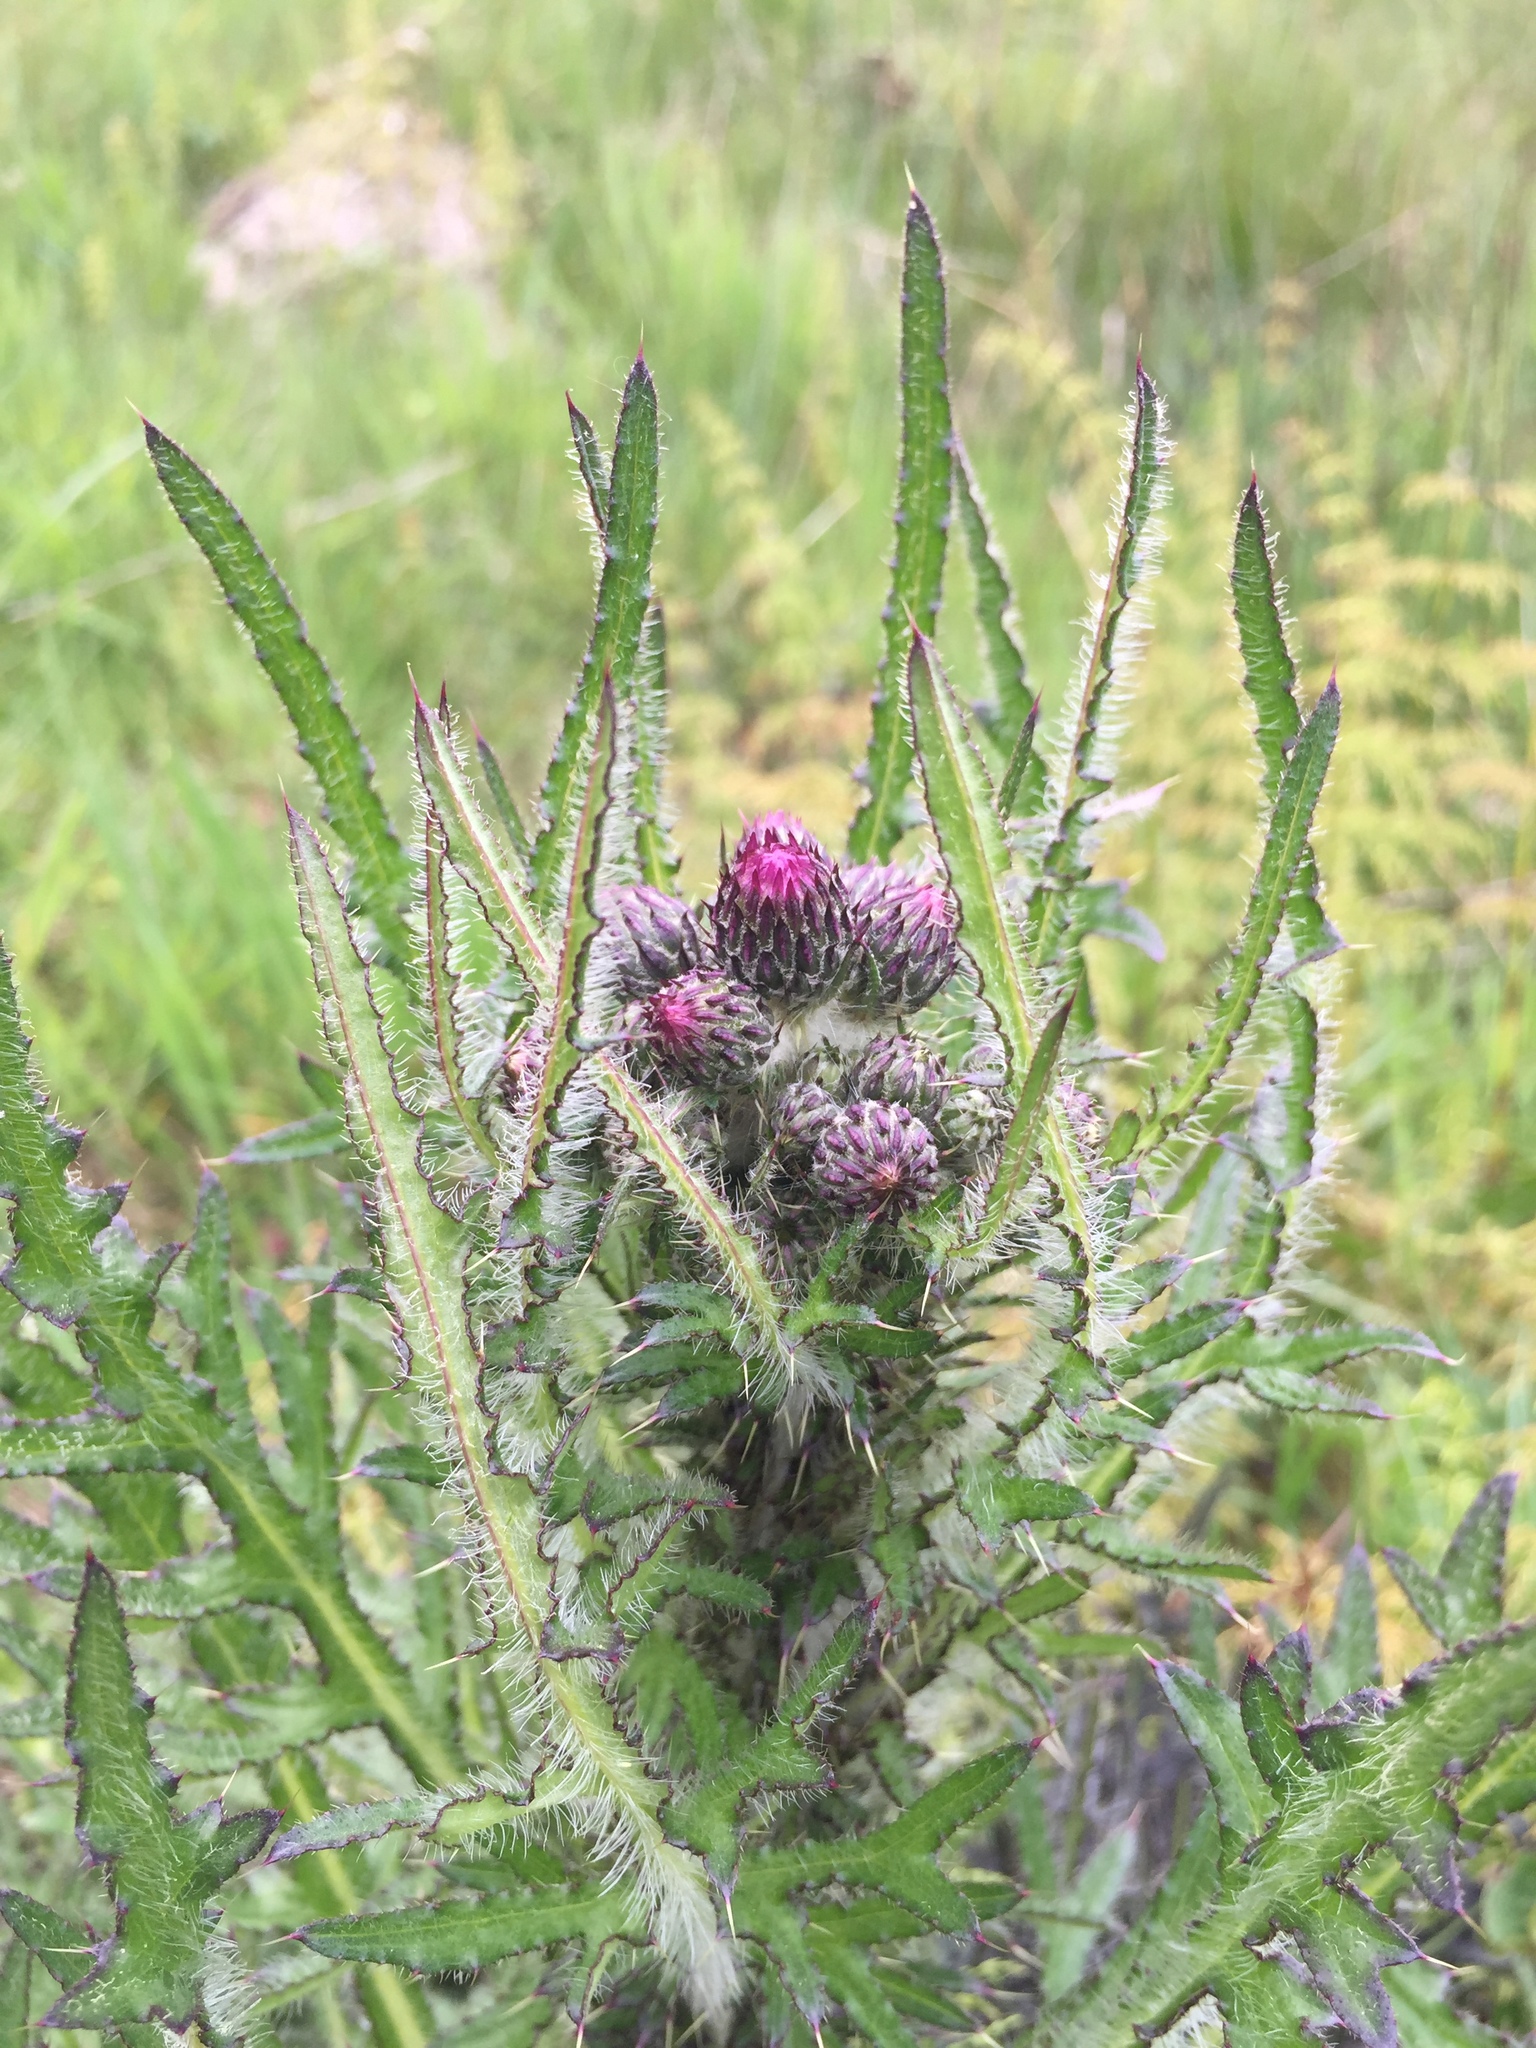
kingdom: Plantae
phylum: Tracheophyta
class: Magnoliopsida
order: Asterales
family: Asteraceae
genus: Cirsium
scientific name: Cirsium palustre
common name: Marsh thistle
